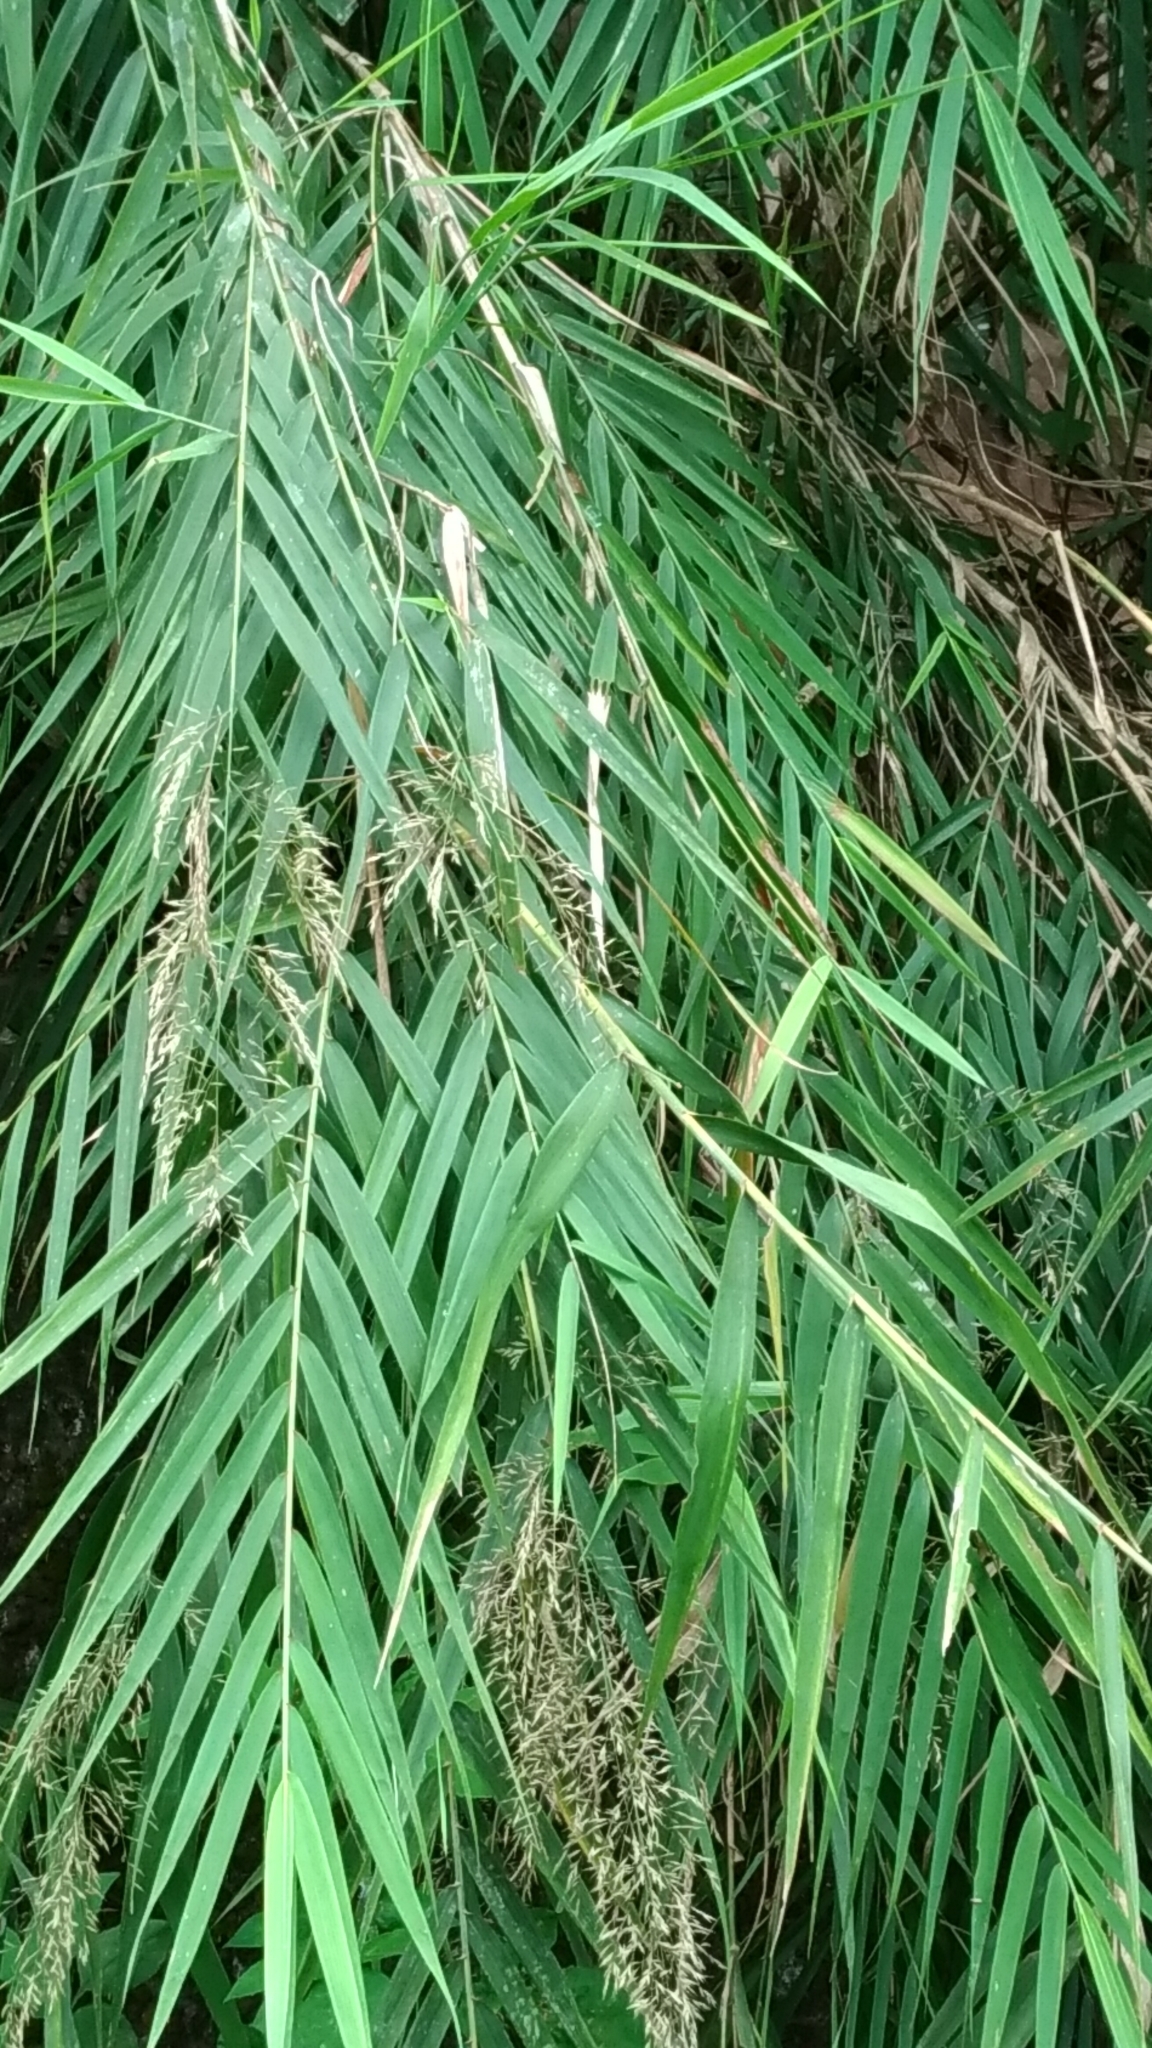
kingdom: Plantae
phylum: Tracheophyta
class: Liliopsida
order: Poales
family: Poaceae
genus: Arundo
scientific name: Arundo formosana
